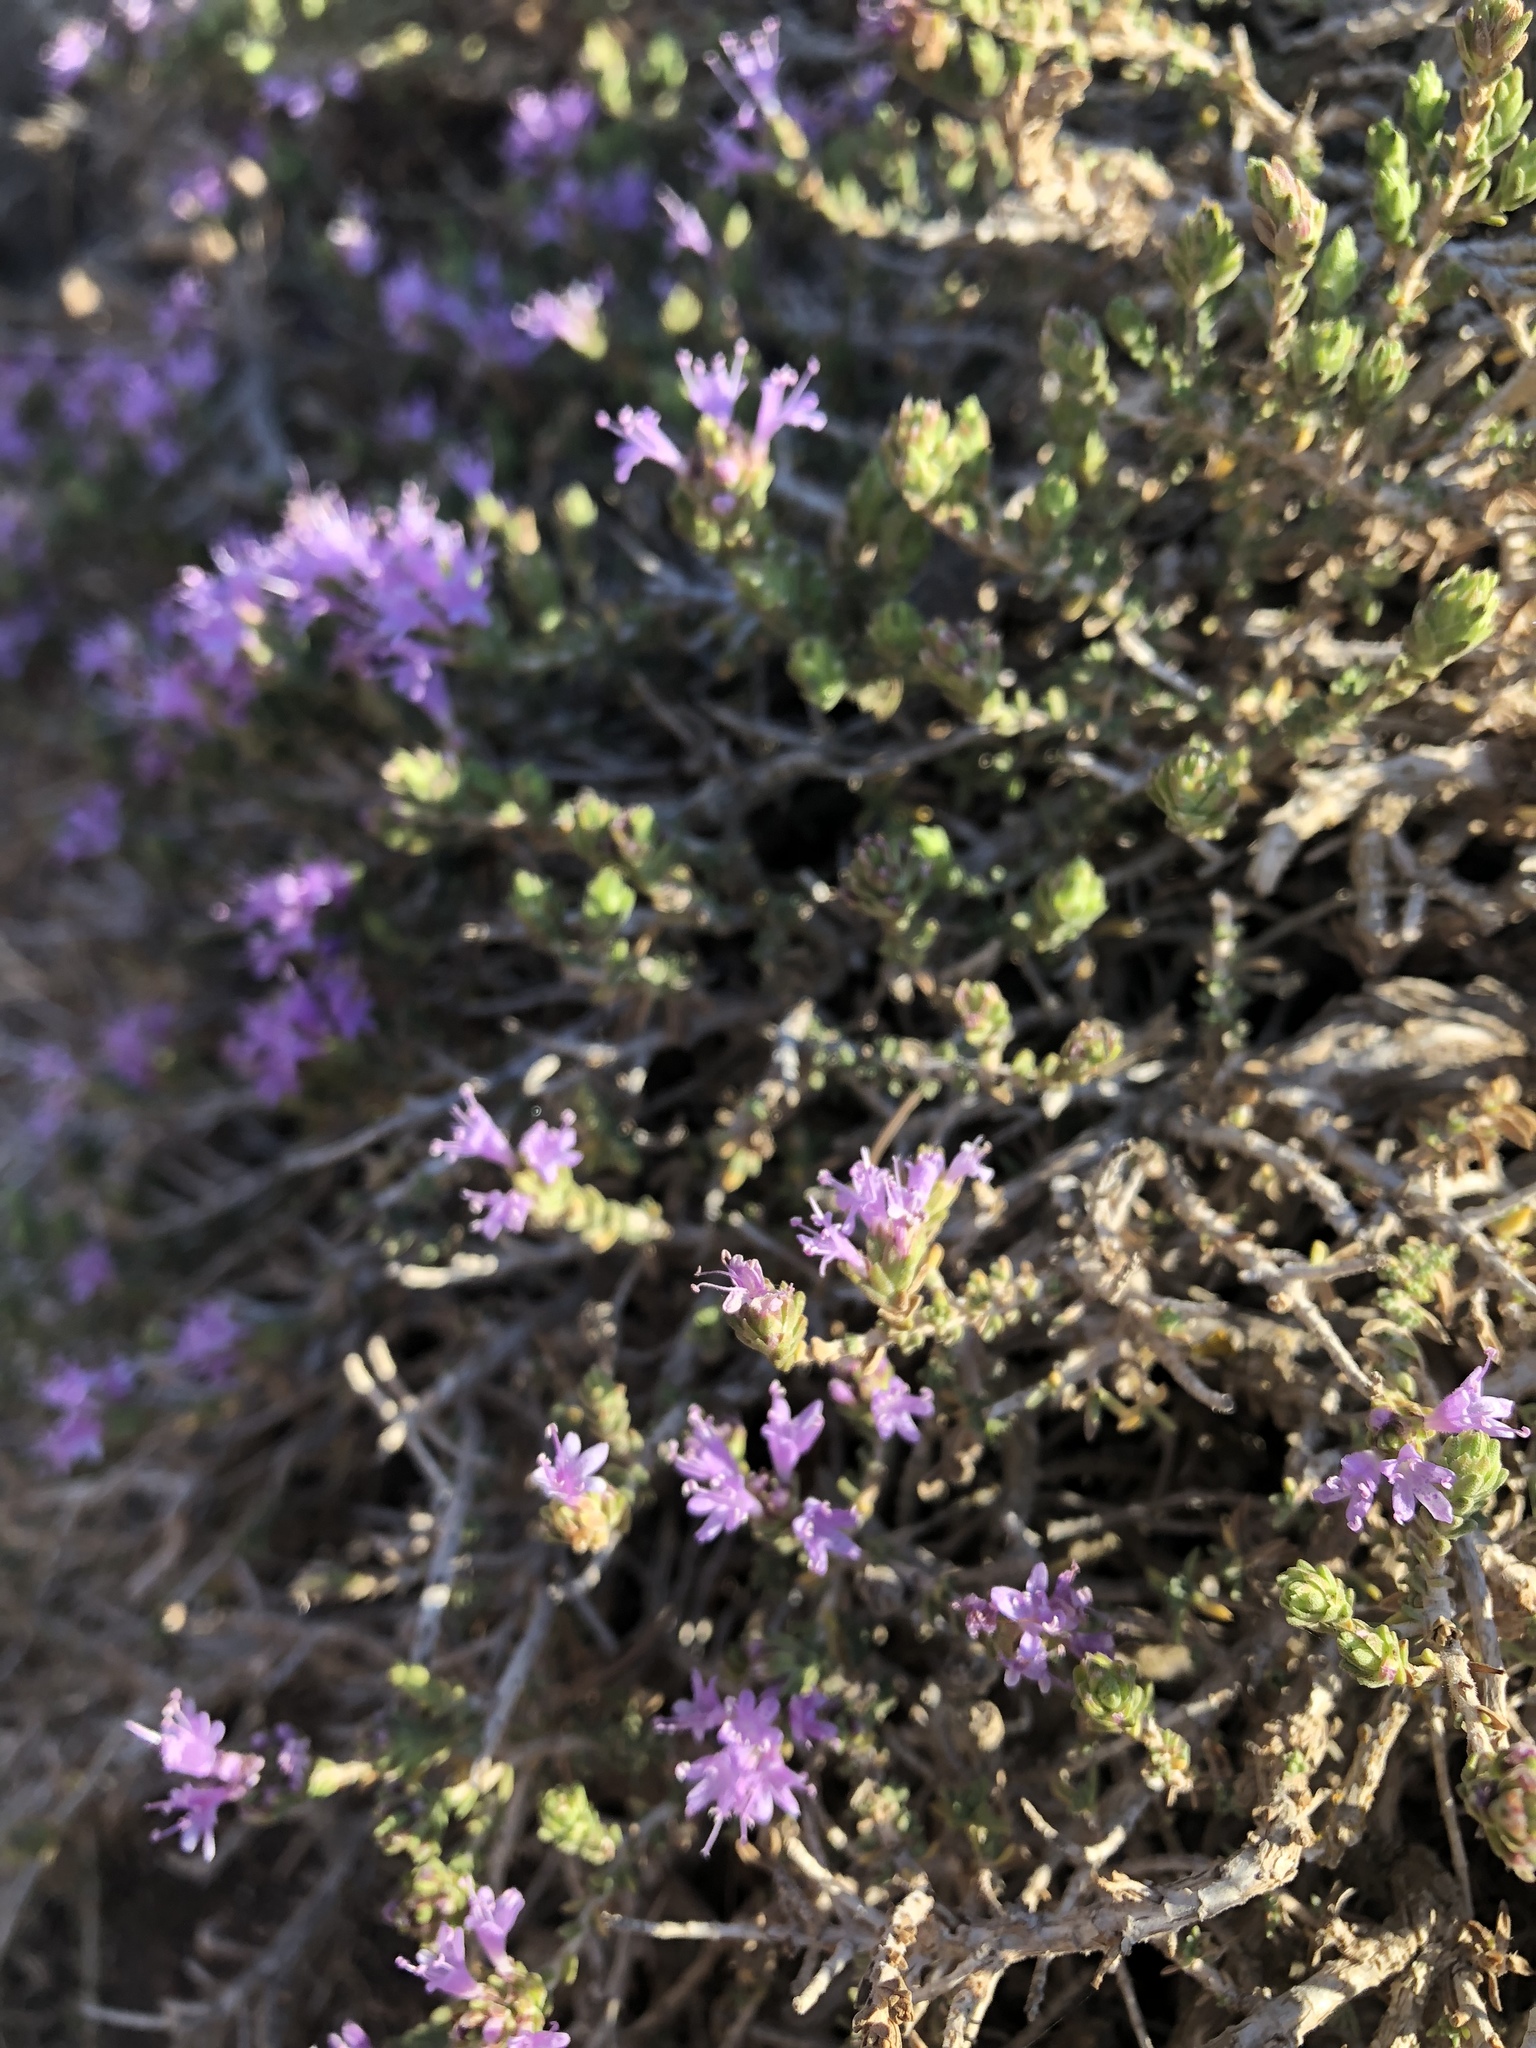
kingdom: Plantae
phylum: Tracheophyta
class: Magnoliopsida
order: Lamiales
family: Lamiaceae
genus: Thymbra
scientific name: Thymbra capitata
